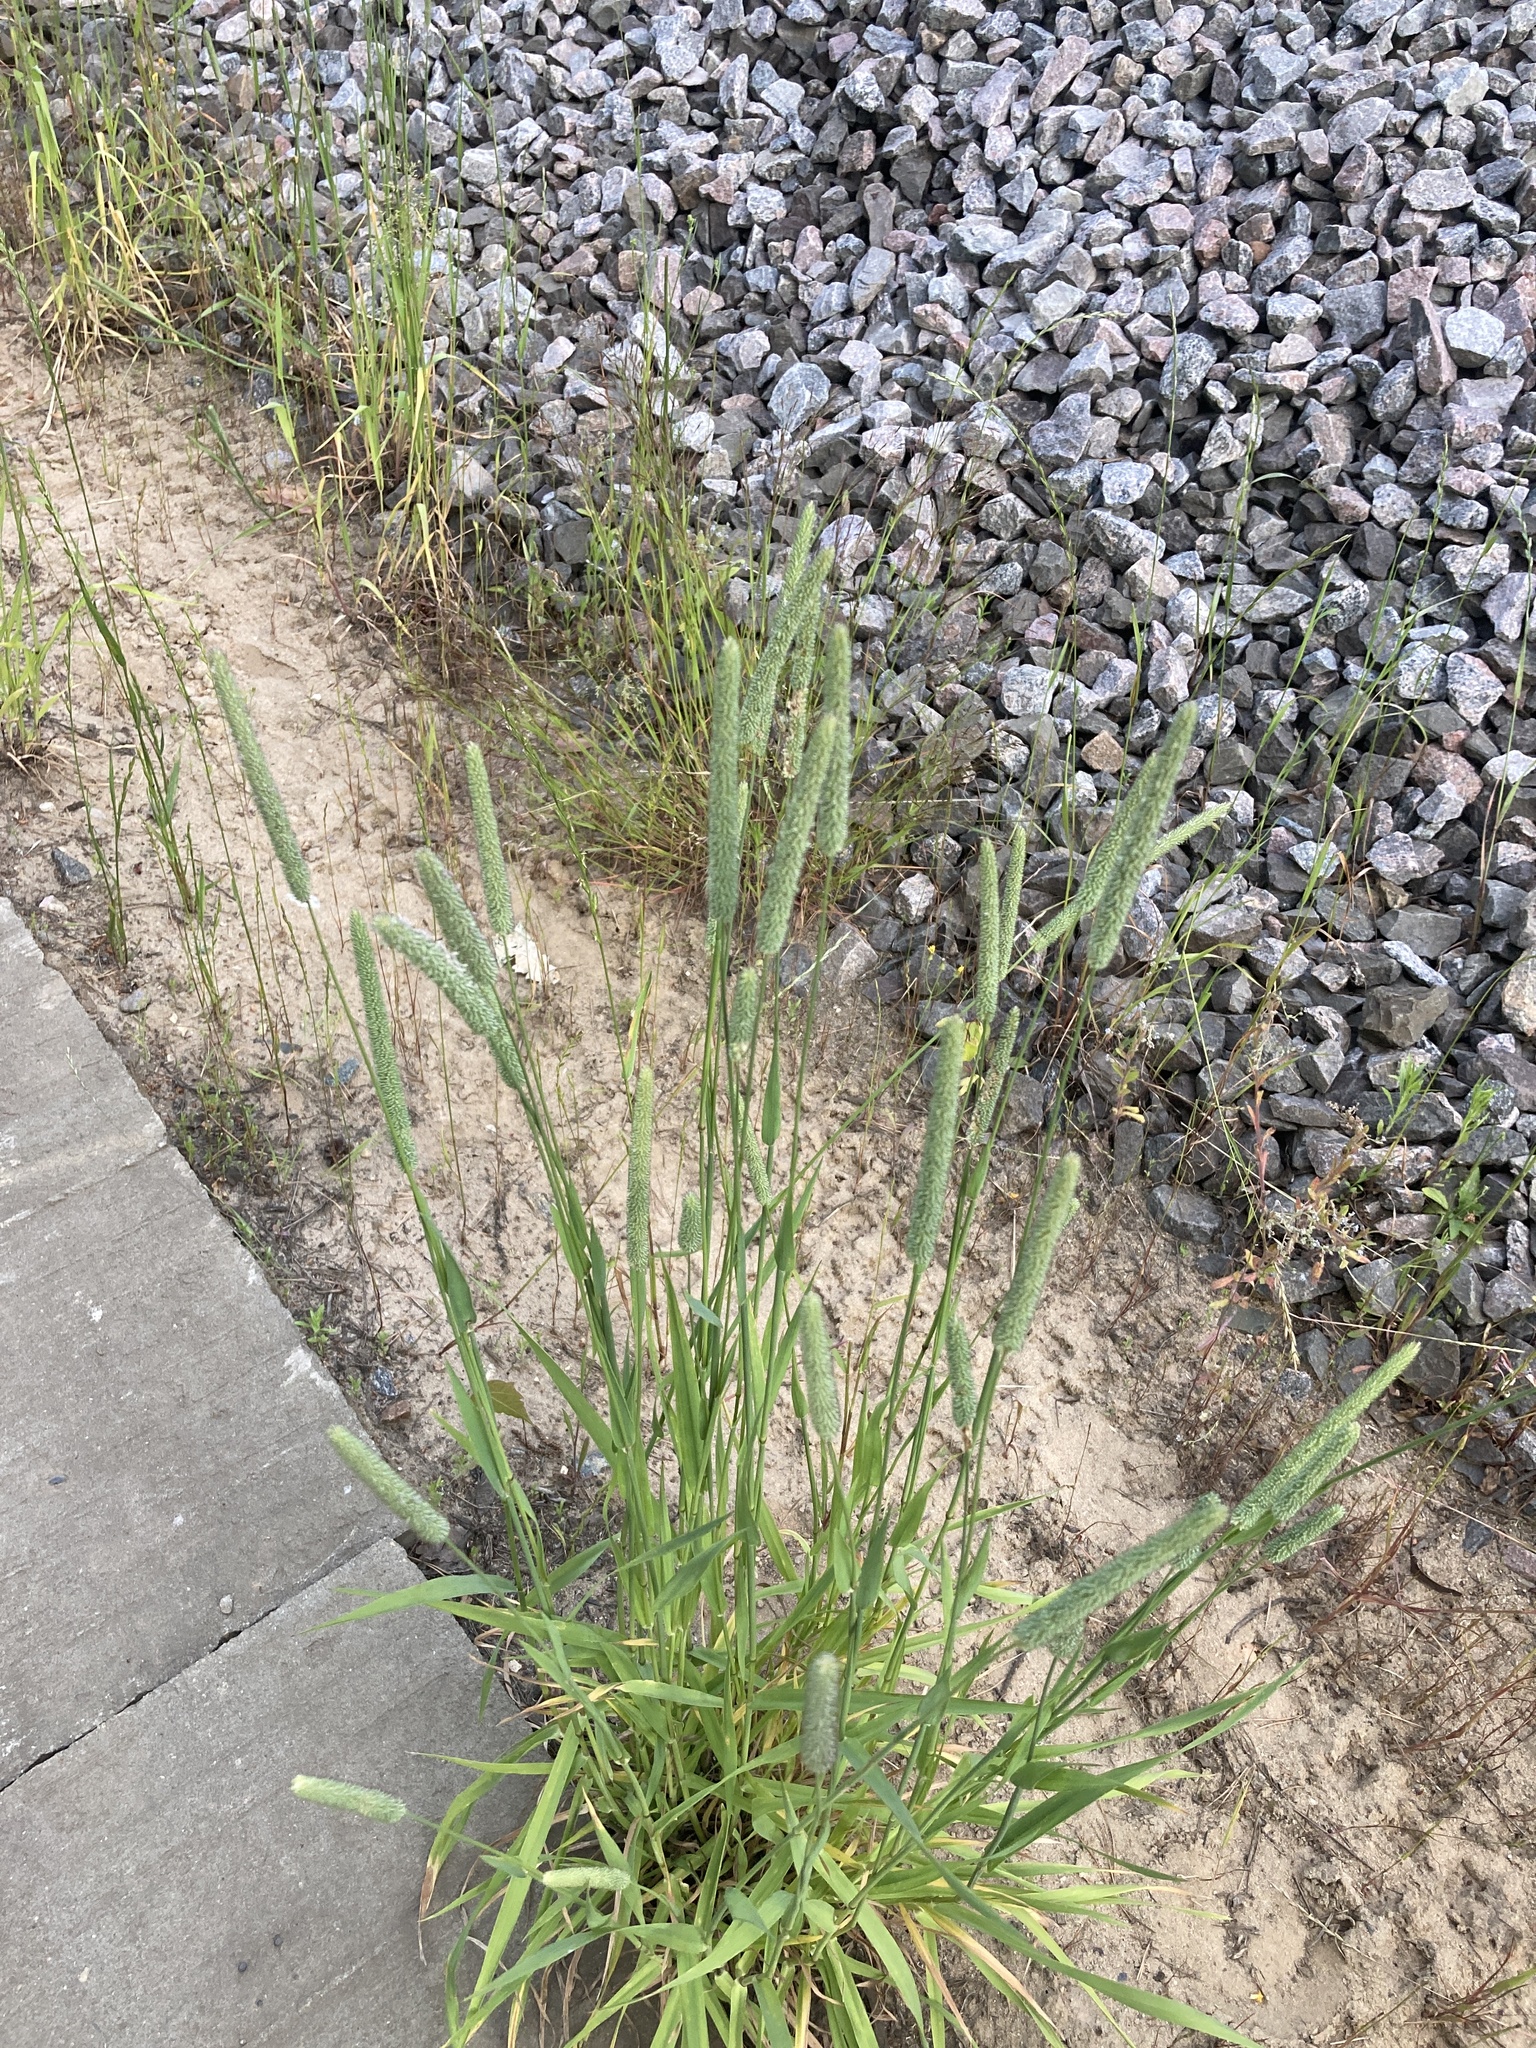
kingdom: Plantae
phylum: Tracheophyta
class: Liliopsida
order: Poales
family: Poaceae
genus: Phleum
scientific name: Phleum pratense
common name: Timothy grass
